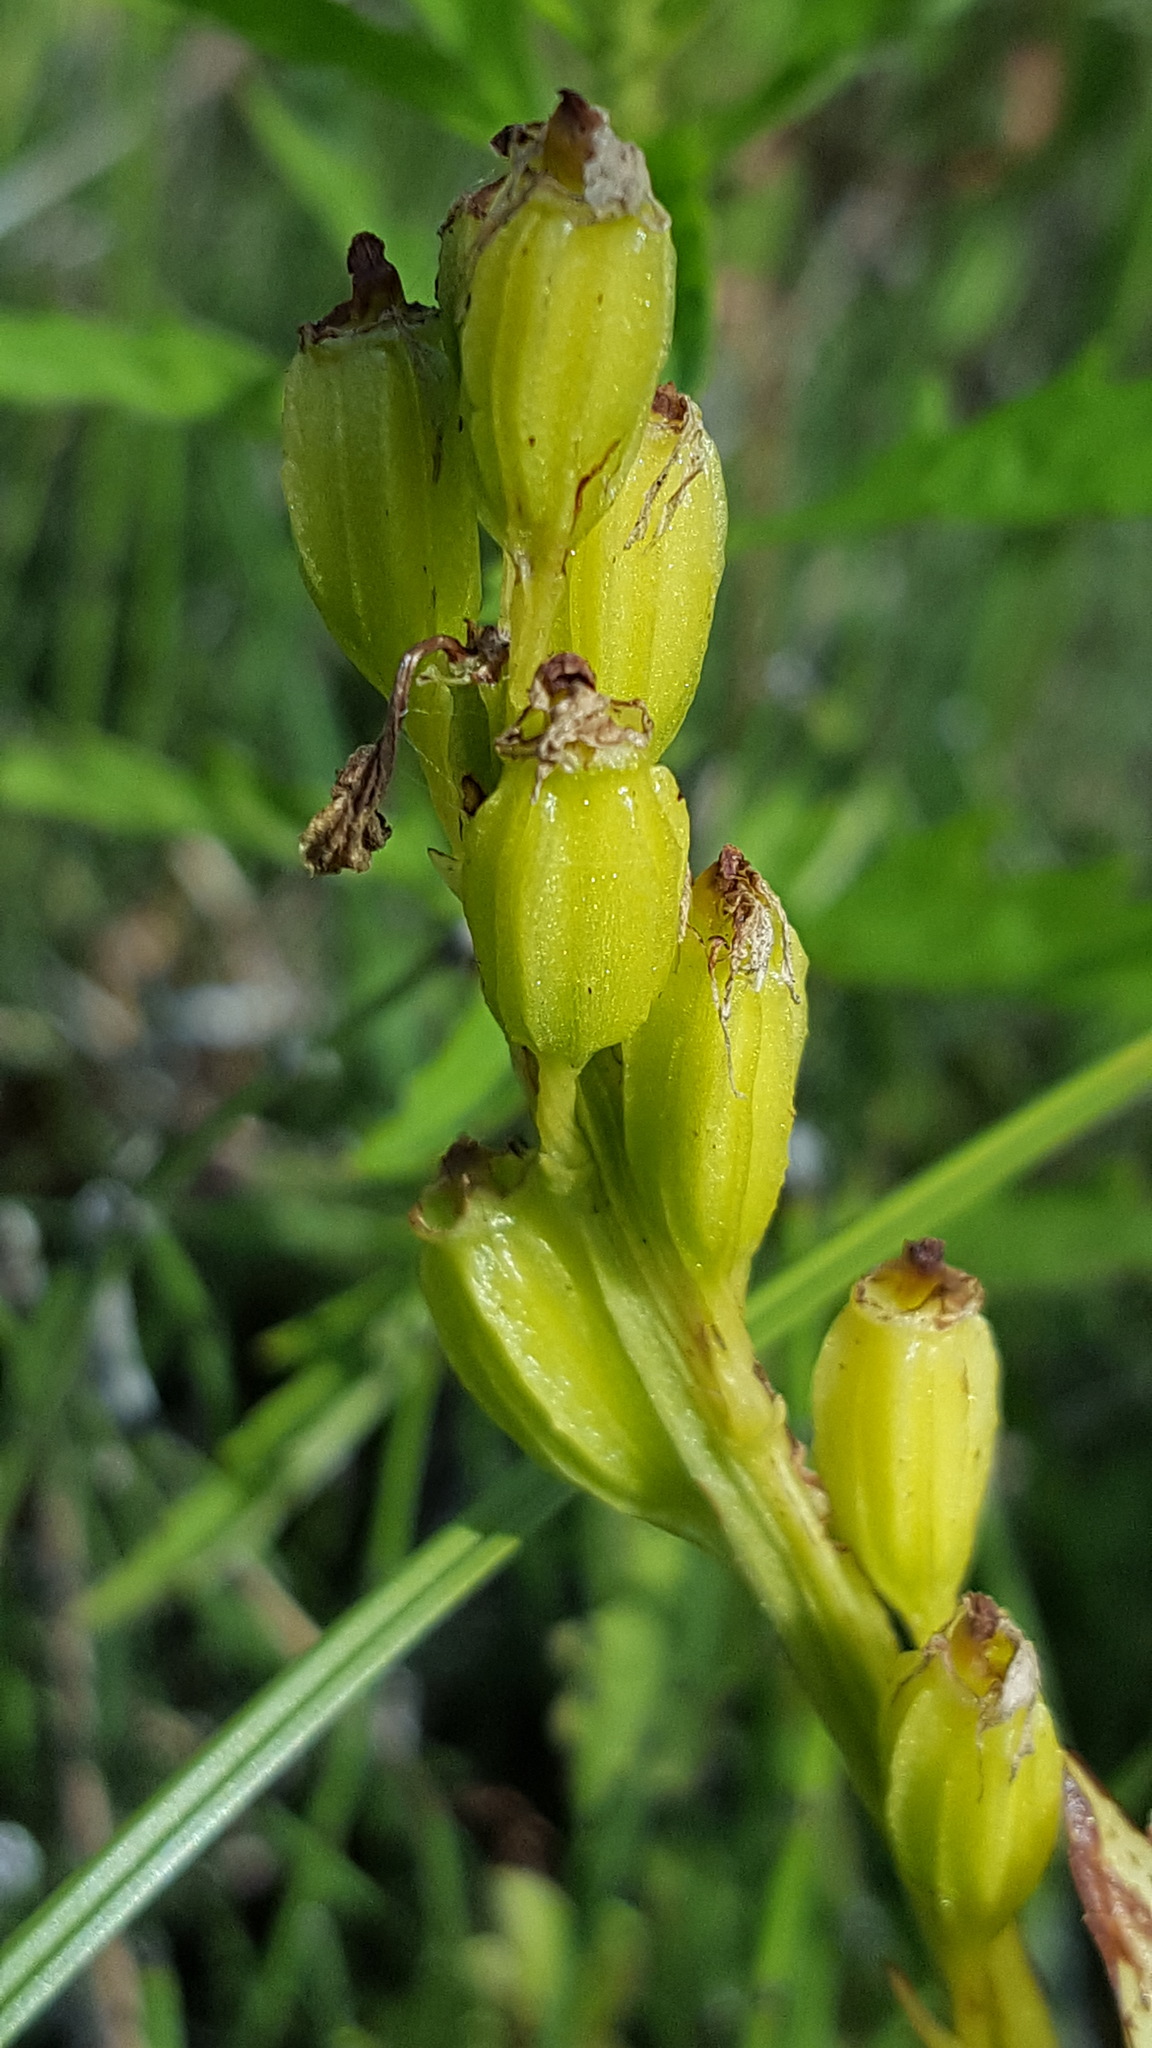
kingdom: Animalia
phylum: Arthropoda
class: Insecta
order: Coleoptera
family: Curculionidae
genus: Liparis
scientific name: Liparis loeselii
